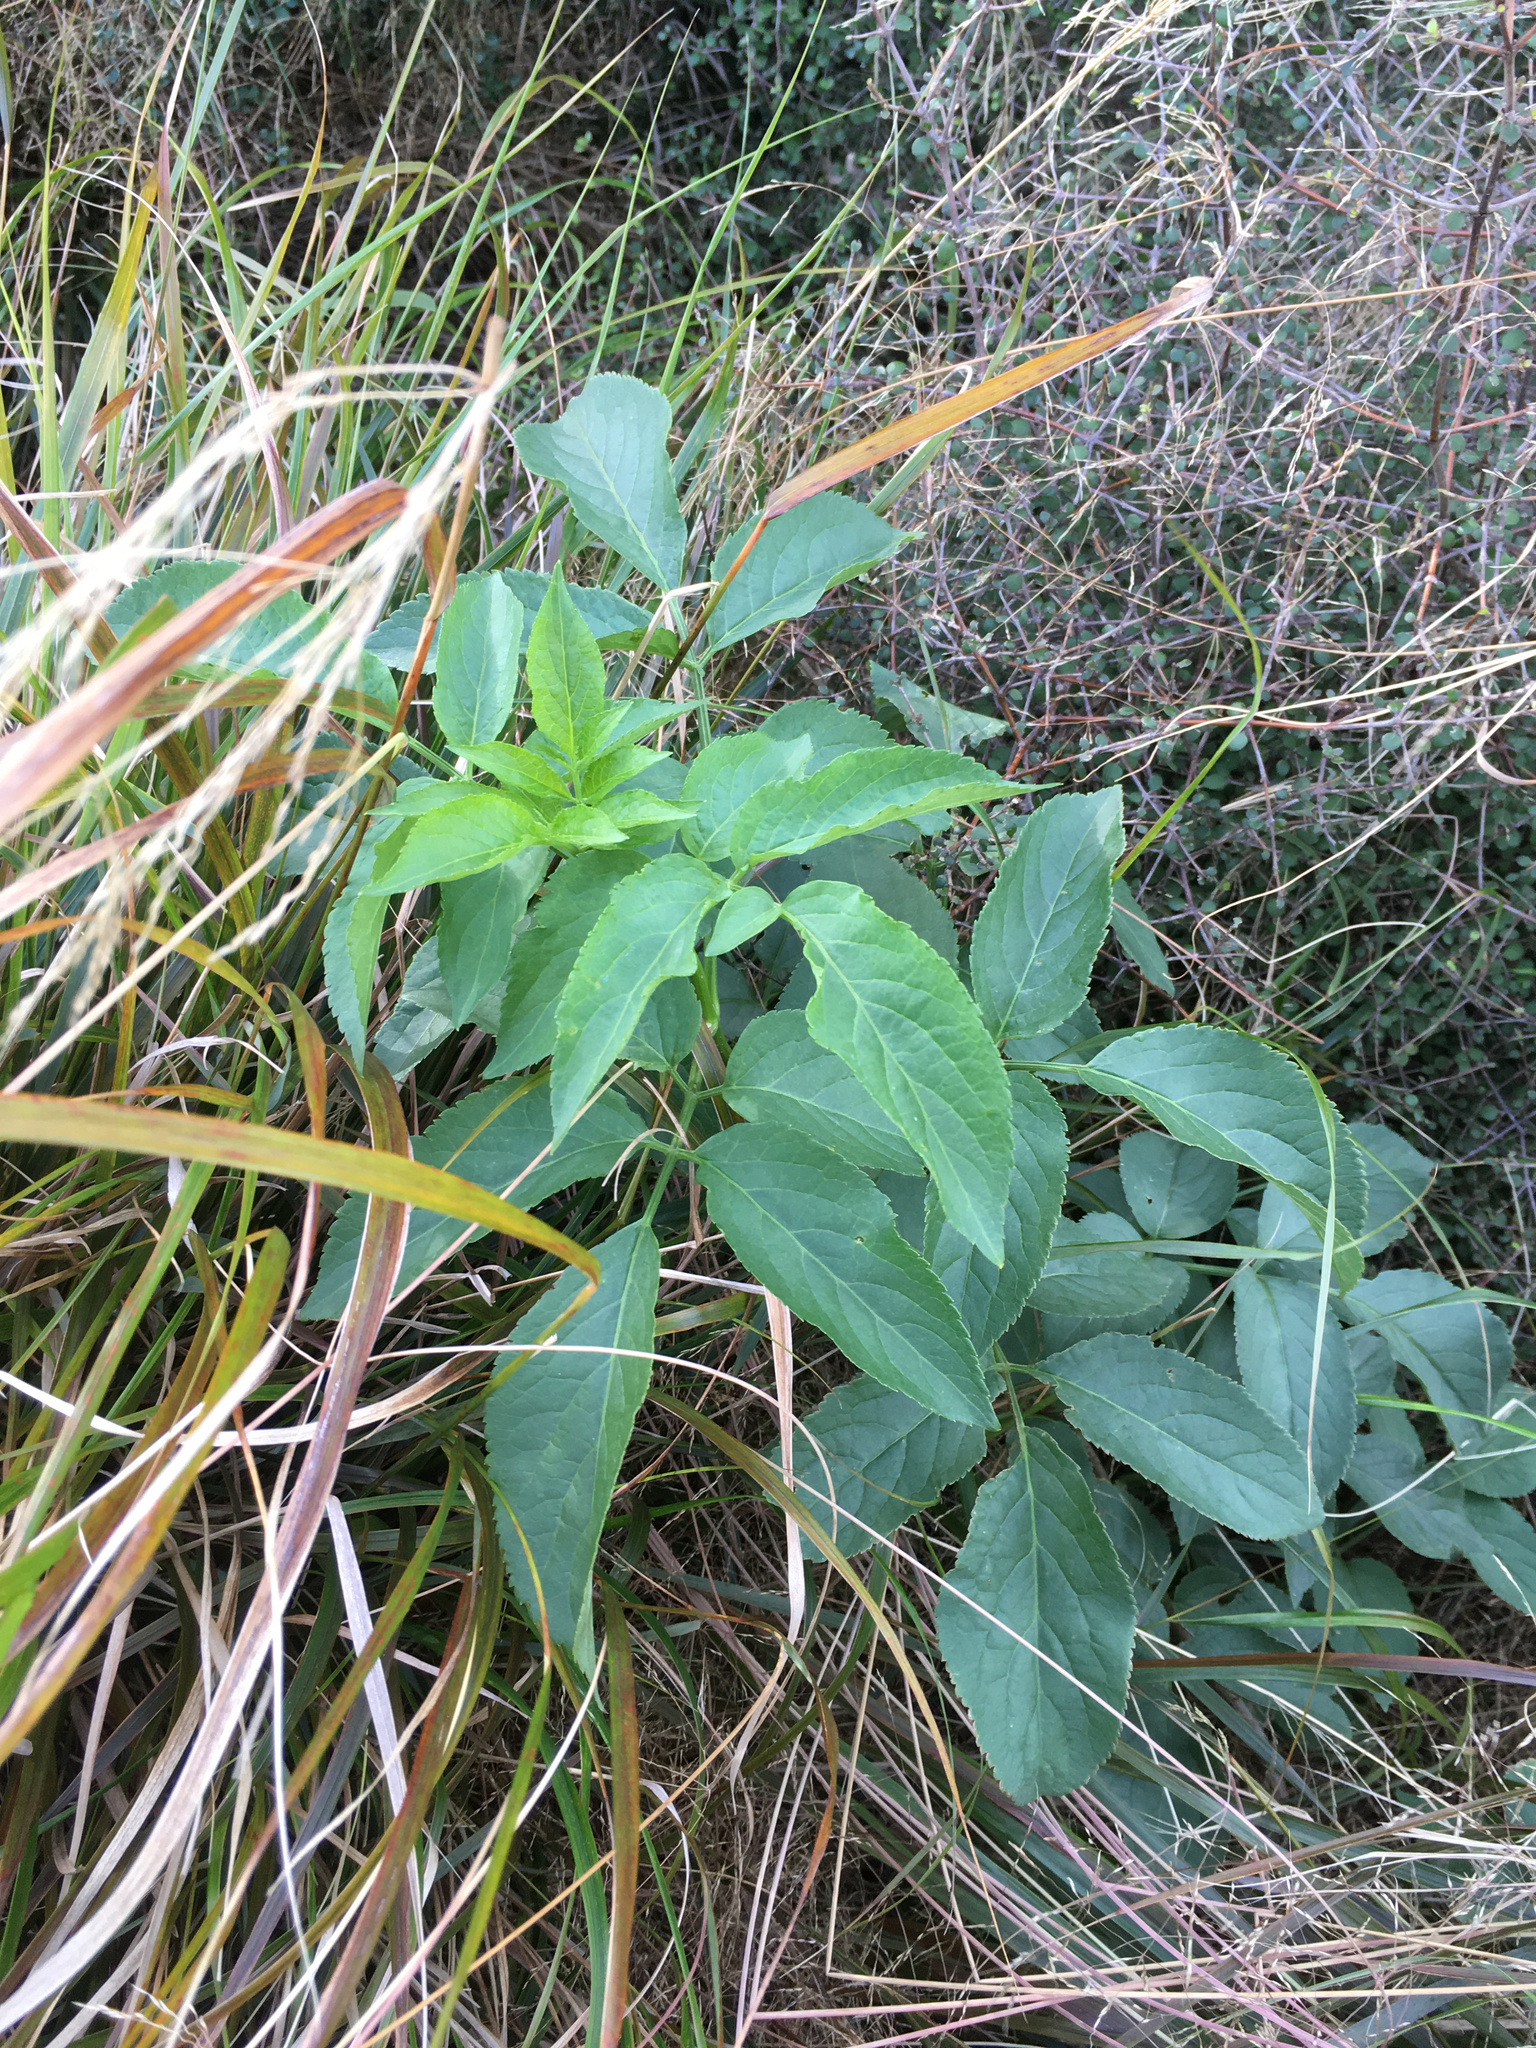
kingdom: Plantae
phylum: Tracheophyta
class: Magnoliopsida
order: Dipsacales
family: Viburnaceae
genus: Sambucus
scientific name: Sambucus nigra
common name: Elder
